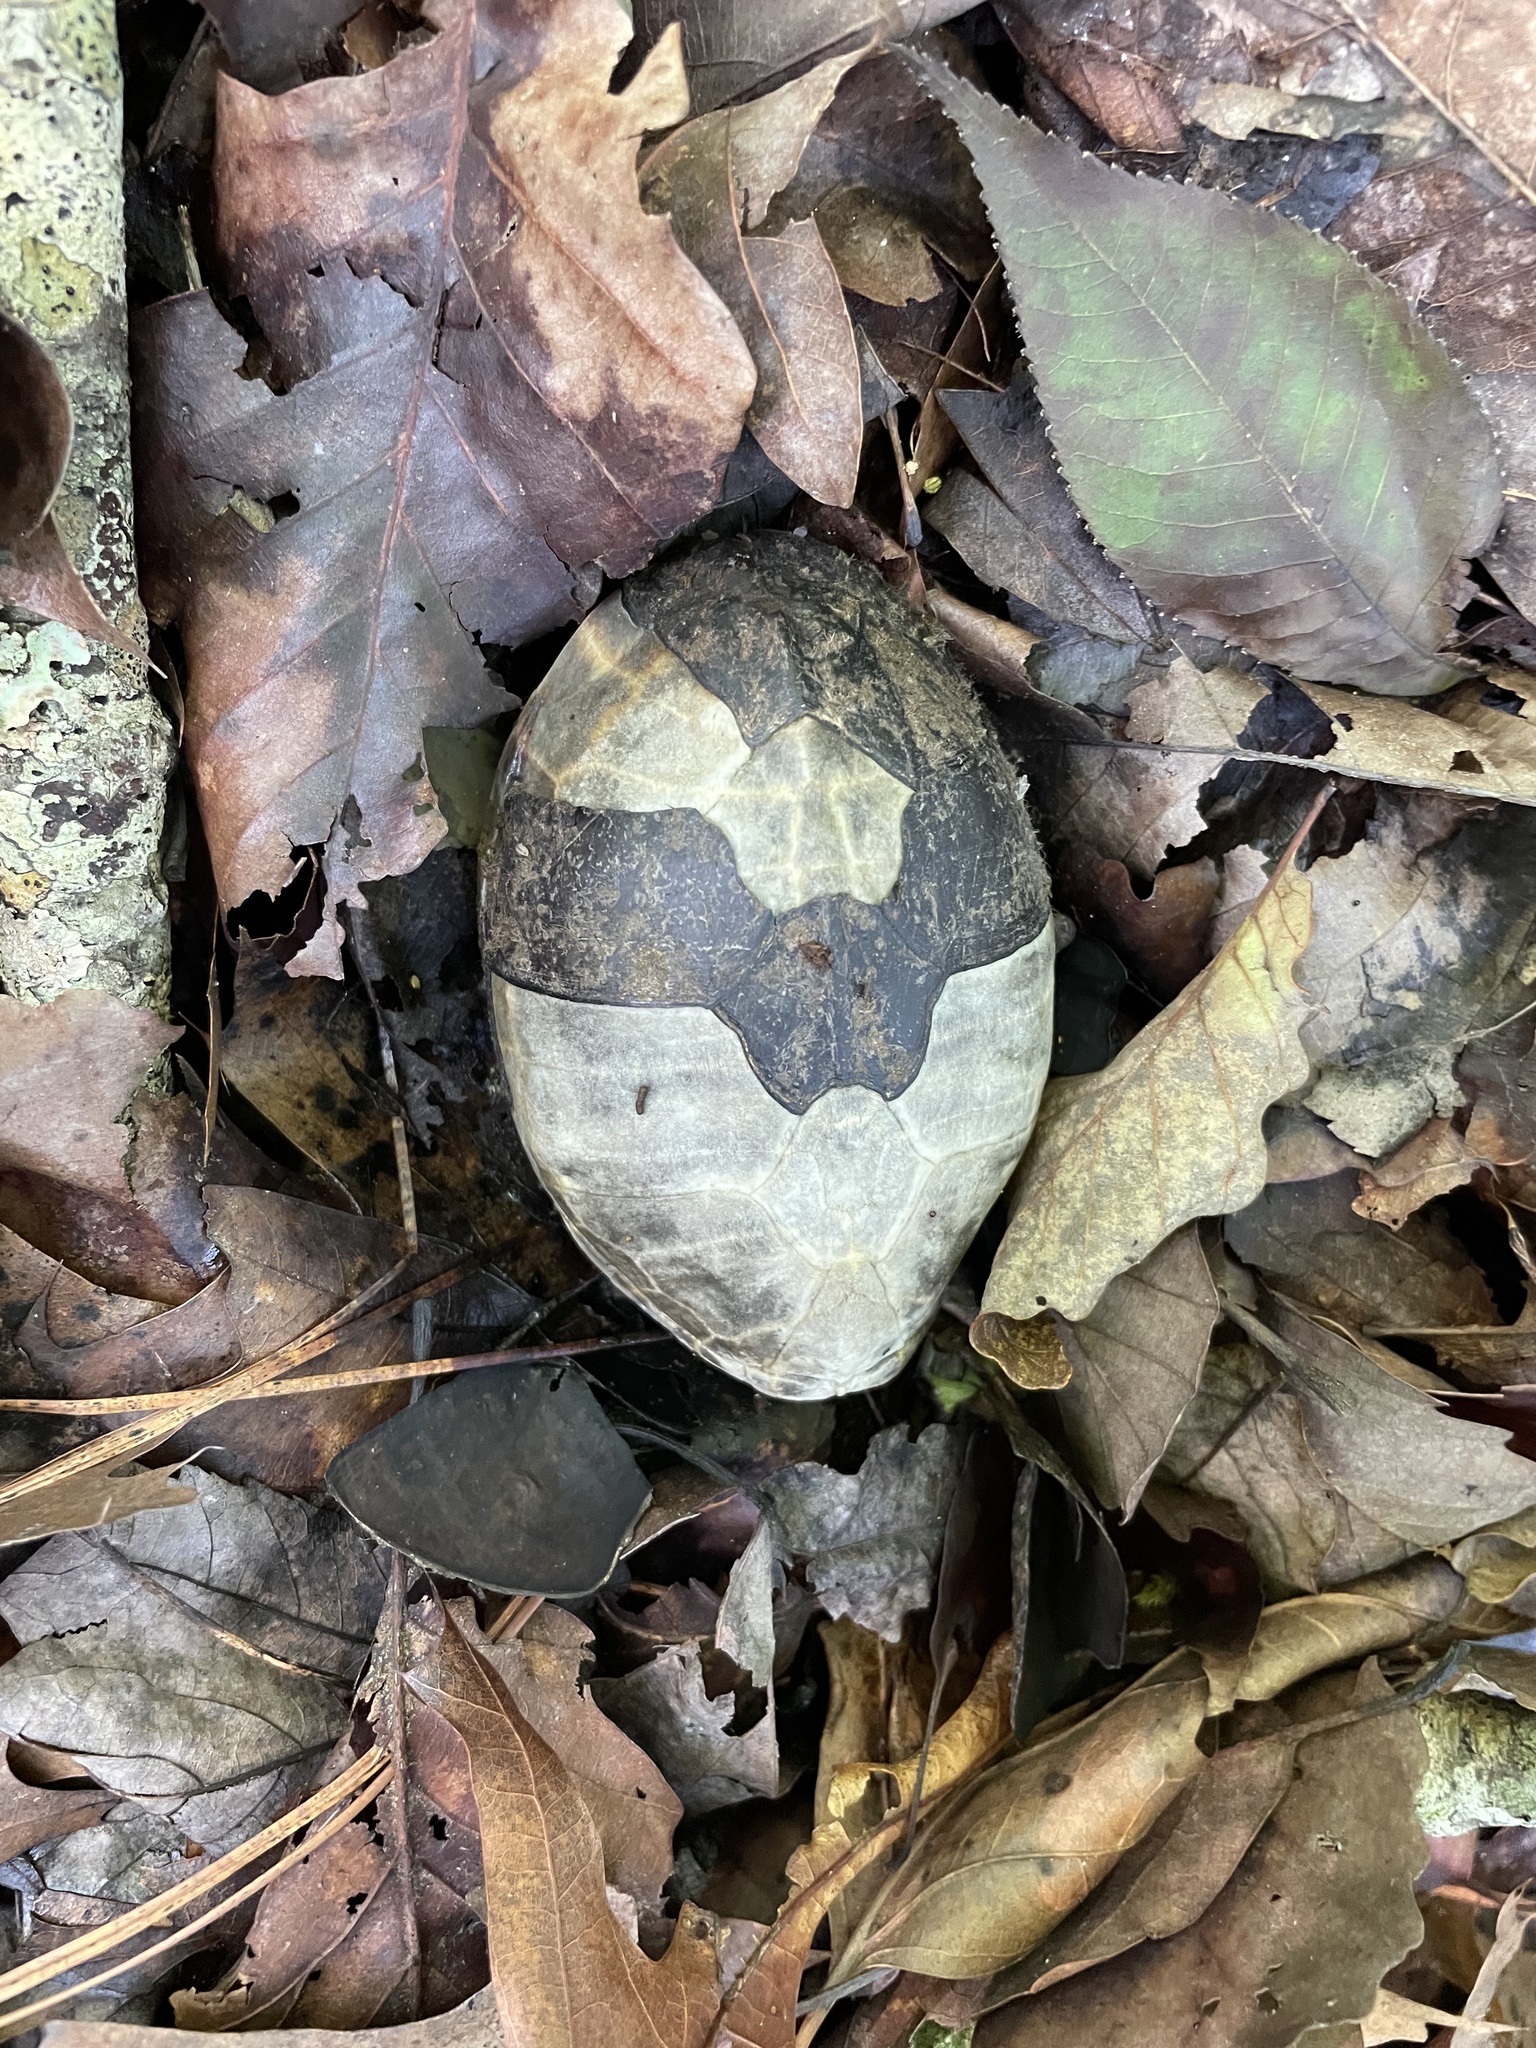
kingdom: Animalia
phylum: Chordata
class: Testudines
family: Kinosternidae
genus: Sternotherus
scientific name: Sternotherus odoratus
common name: Common musk turtle
